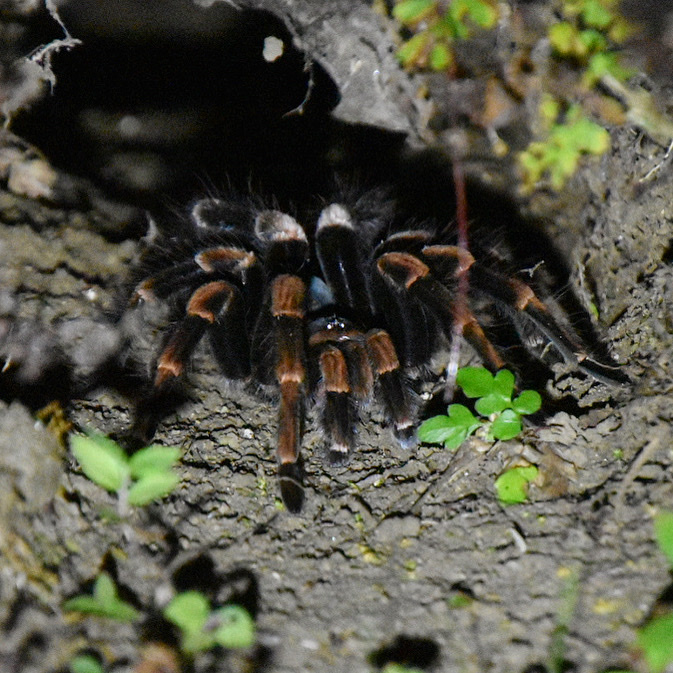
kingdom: Animalia
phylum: Arthropoda
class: Arachnida
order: Araneae
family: Theraphosidae
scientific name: Theraphosidae
